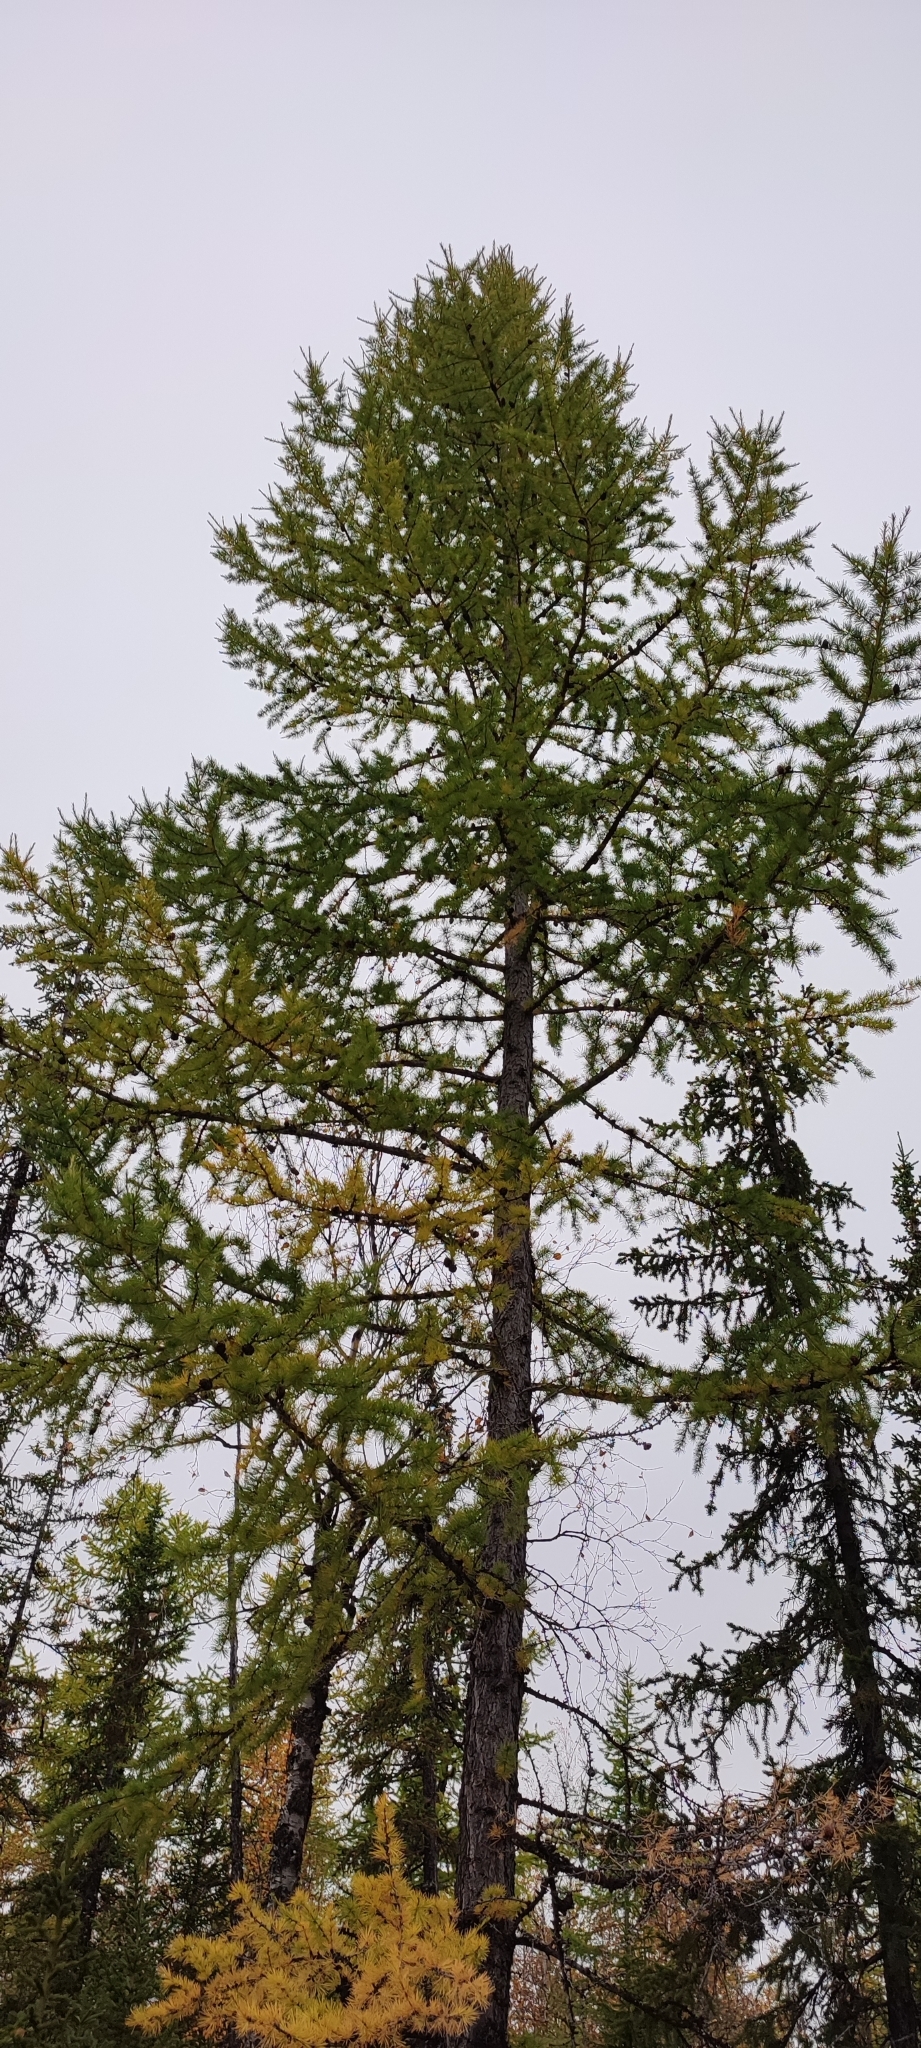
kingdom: Plantae
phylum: Tracheophyta
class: Pinopsida
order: Pinales
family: Pinaceae
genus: Larix
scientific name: Larix sibirica
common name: Siberian larch
